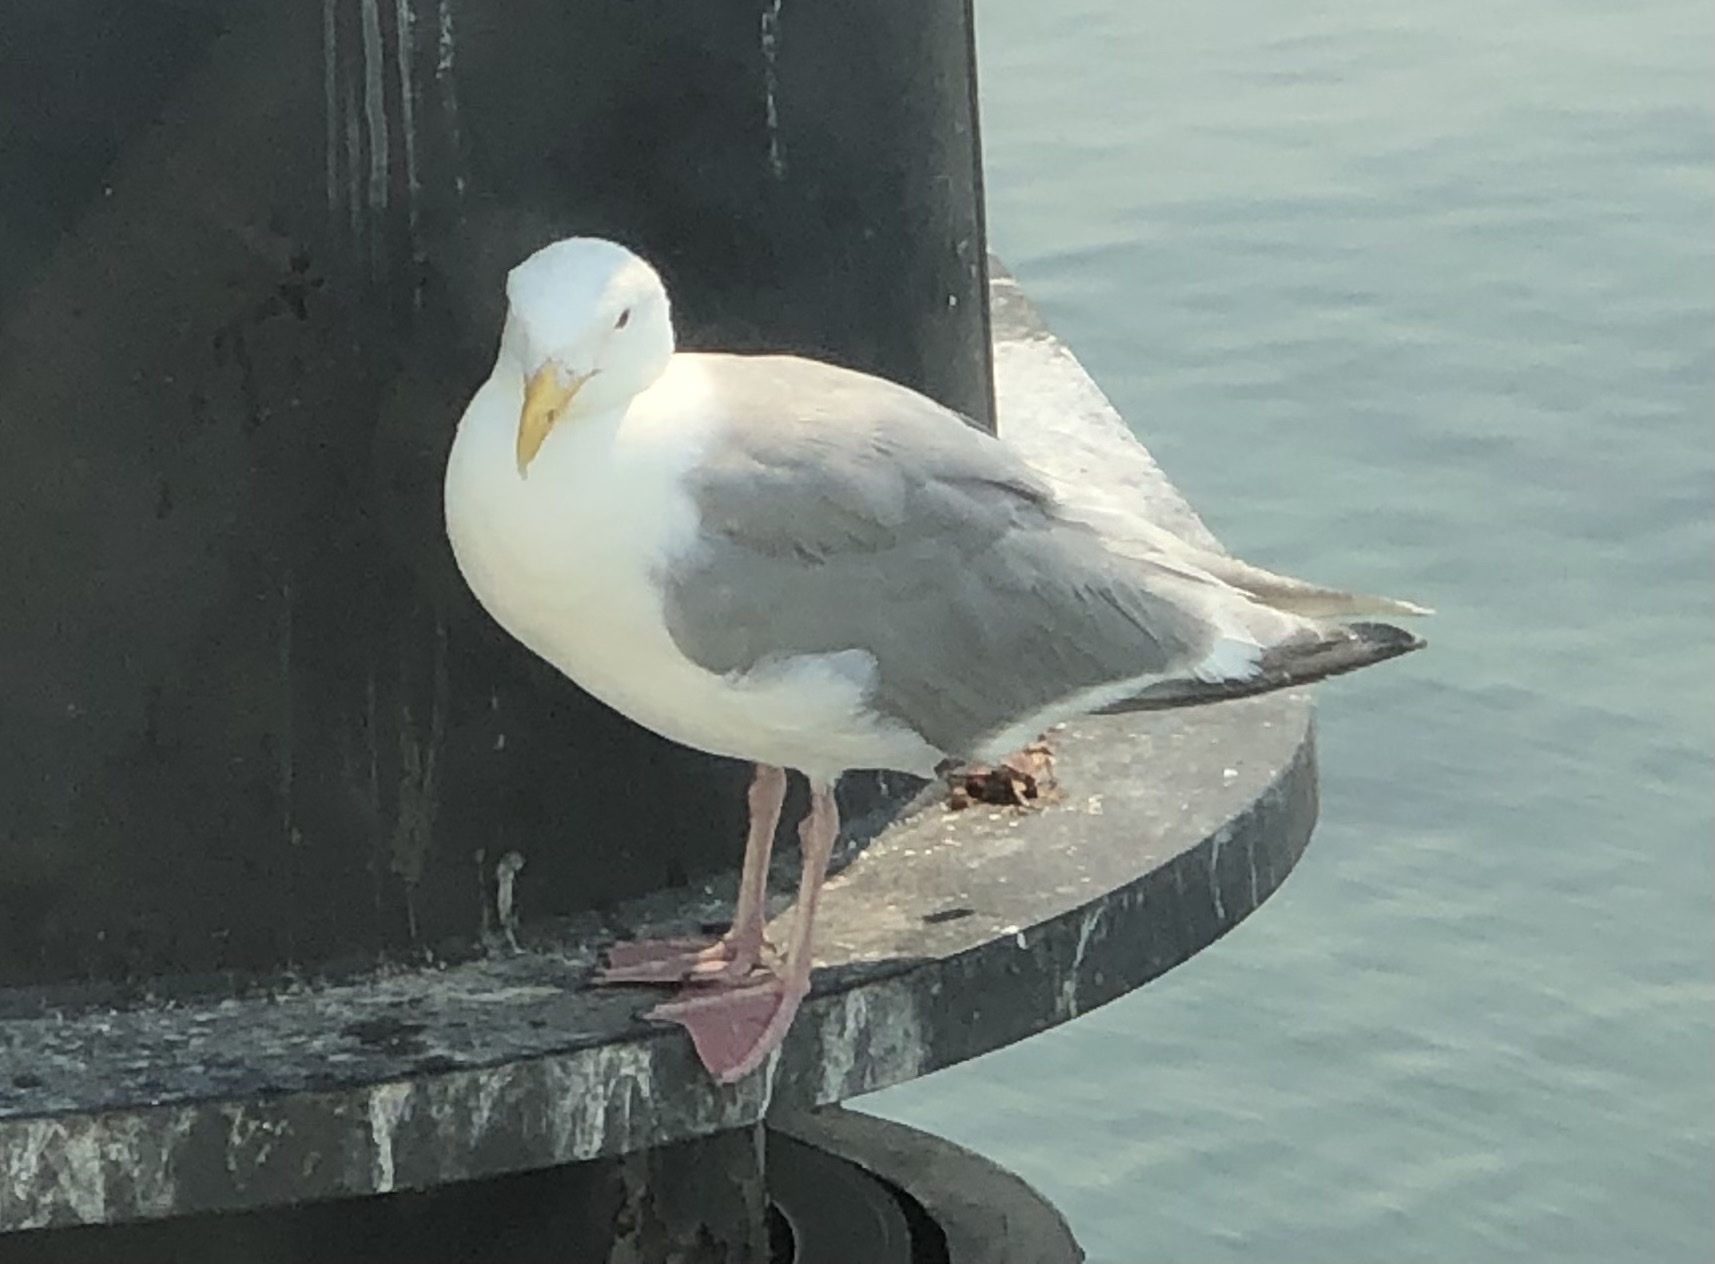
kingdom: Animalia
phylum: Chordata
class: Aves
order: Charadriiformes
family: Laridae
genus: Larus
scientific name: Larus
